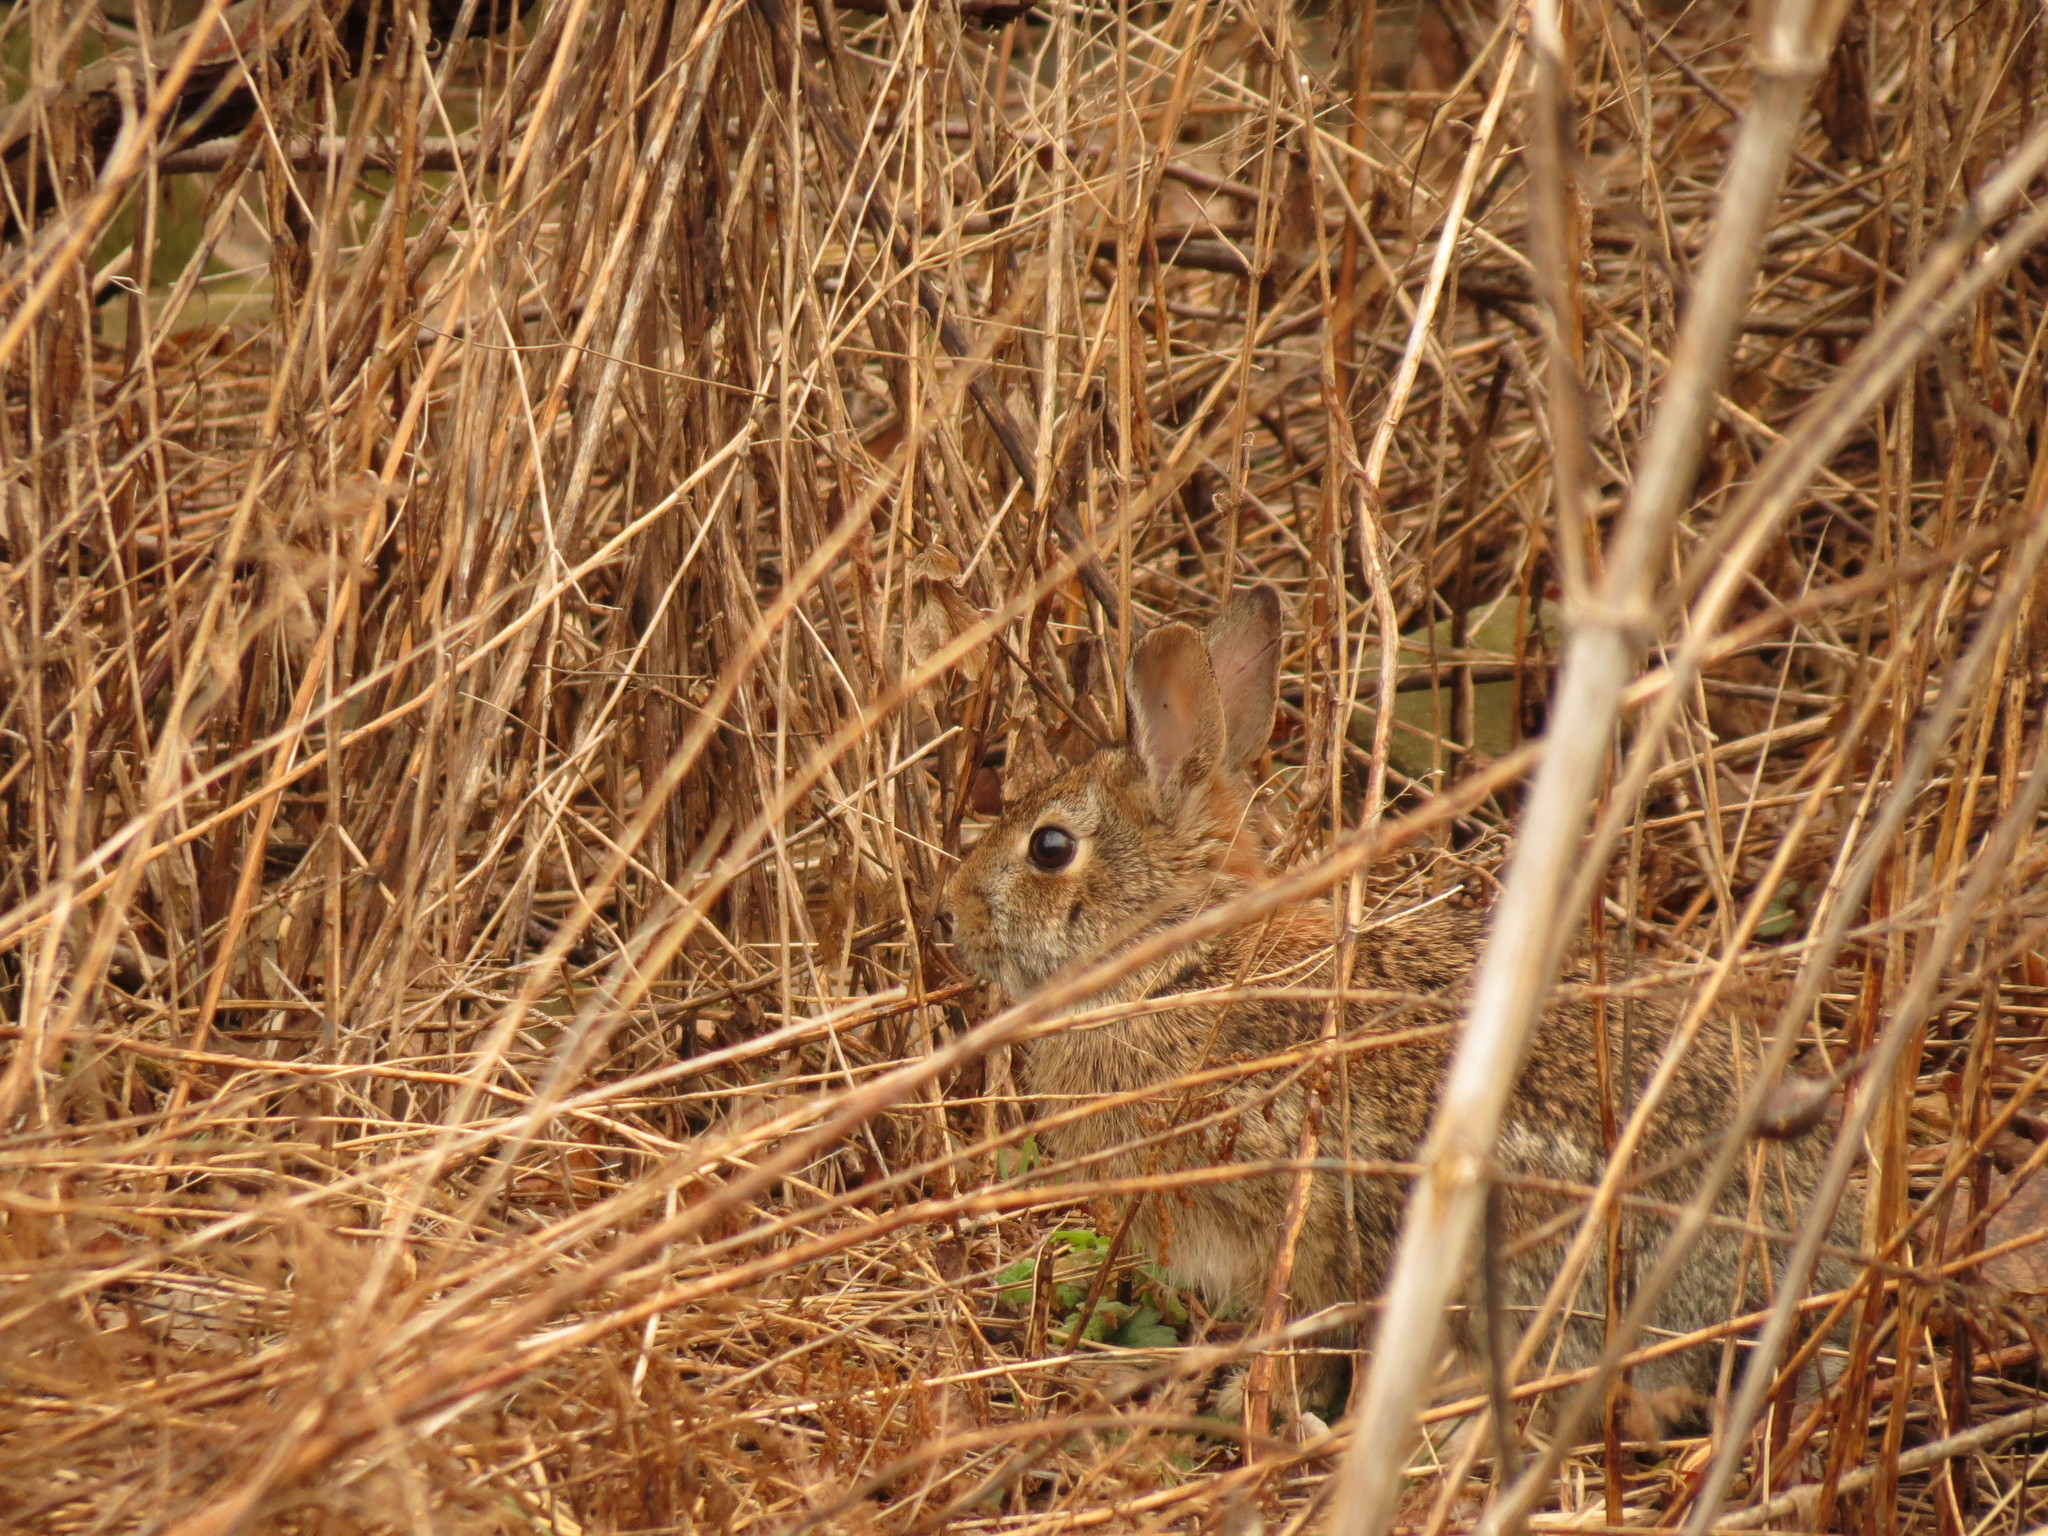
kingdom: Animalia
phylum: Chordata
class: Mammalia
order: Lagomorpha
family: Leporidae
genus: Sylvilagus
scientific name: Sylvilagus floridanus
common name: Eastern cottontail
